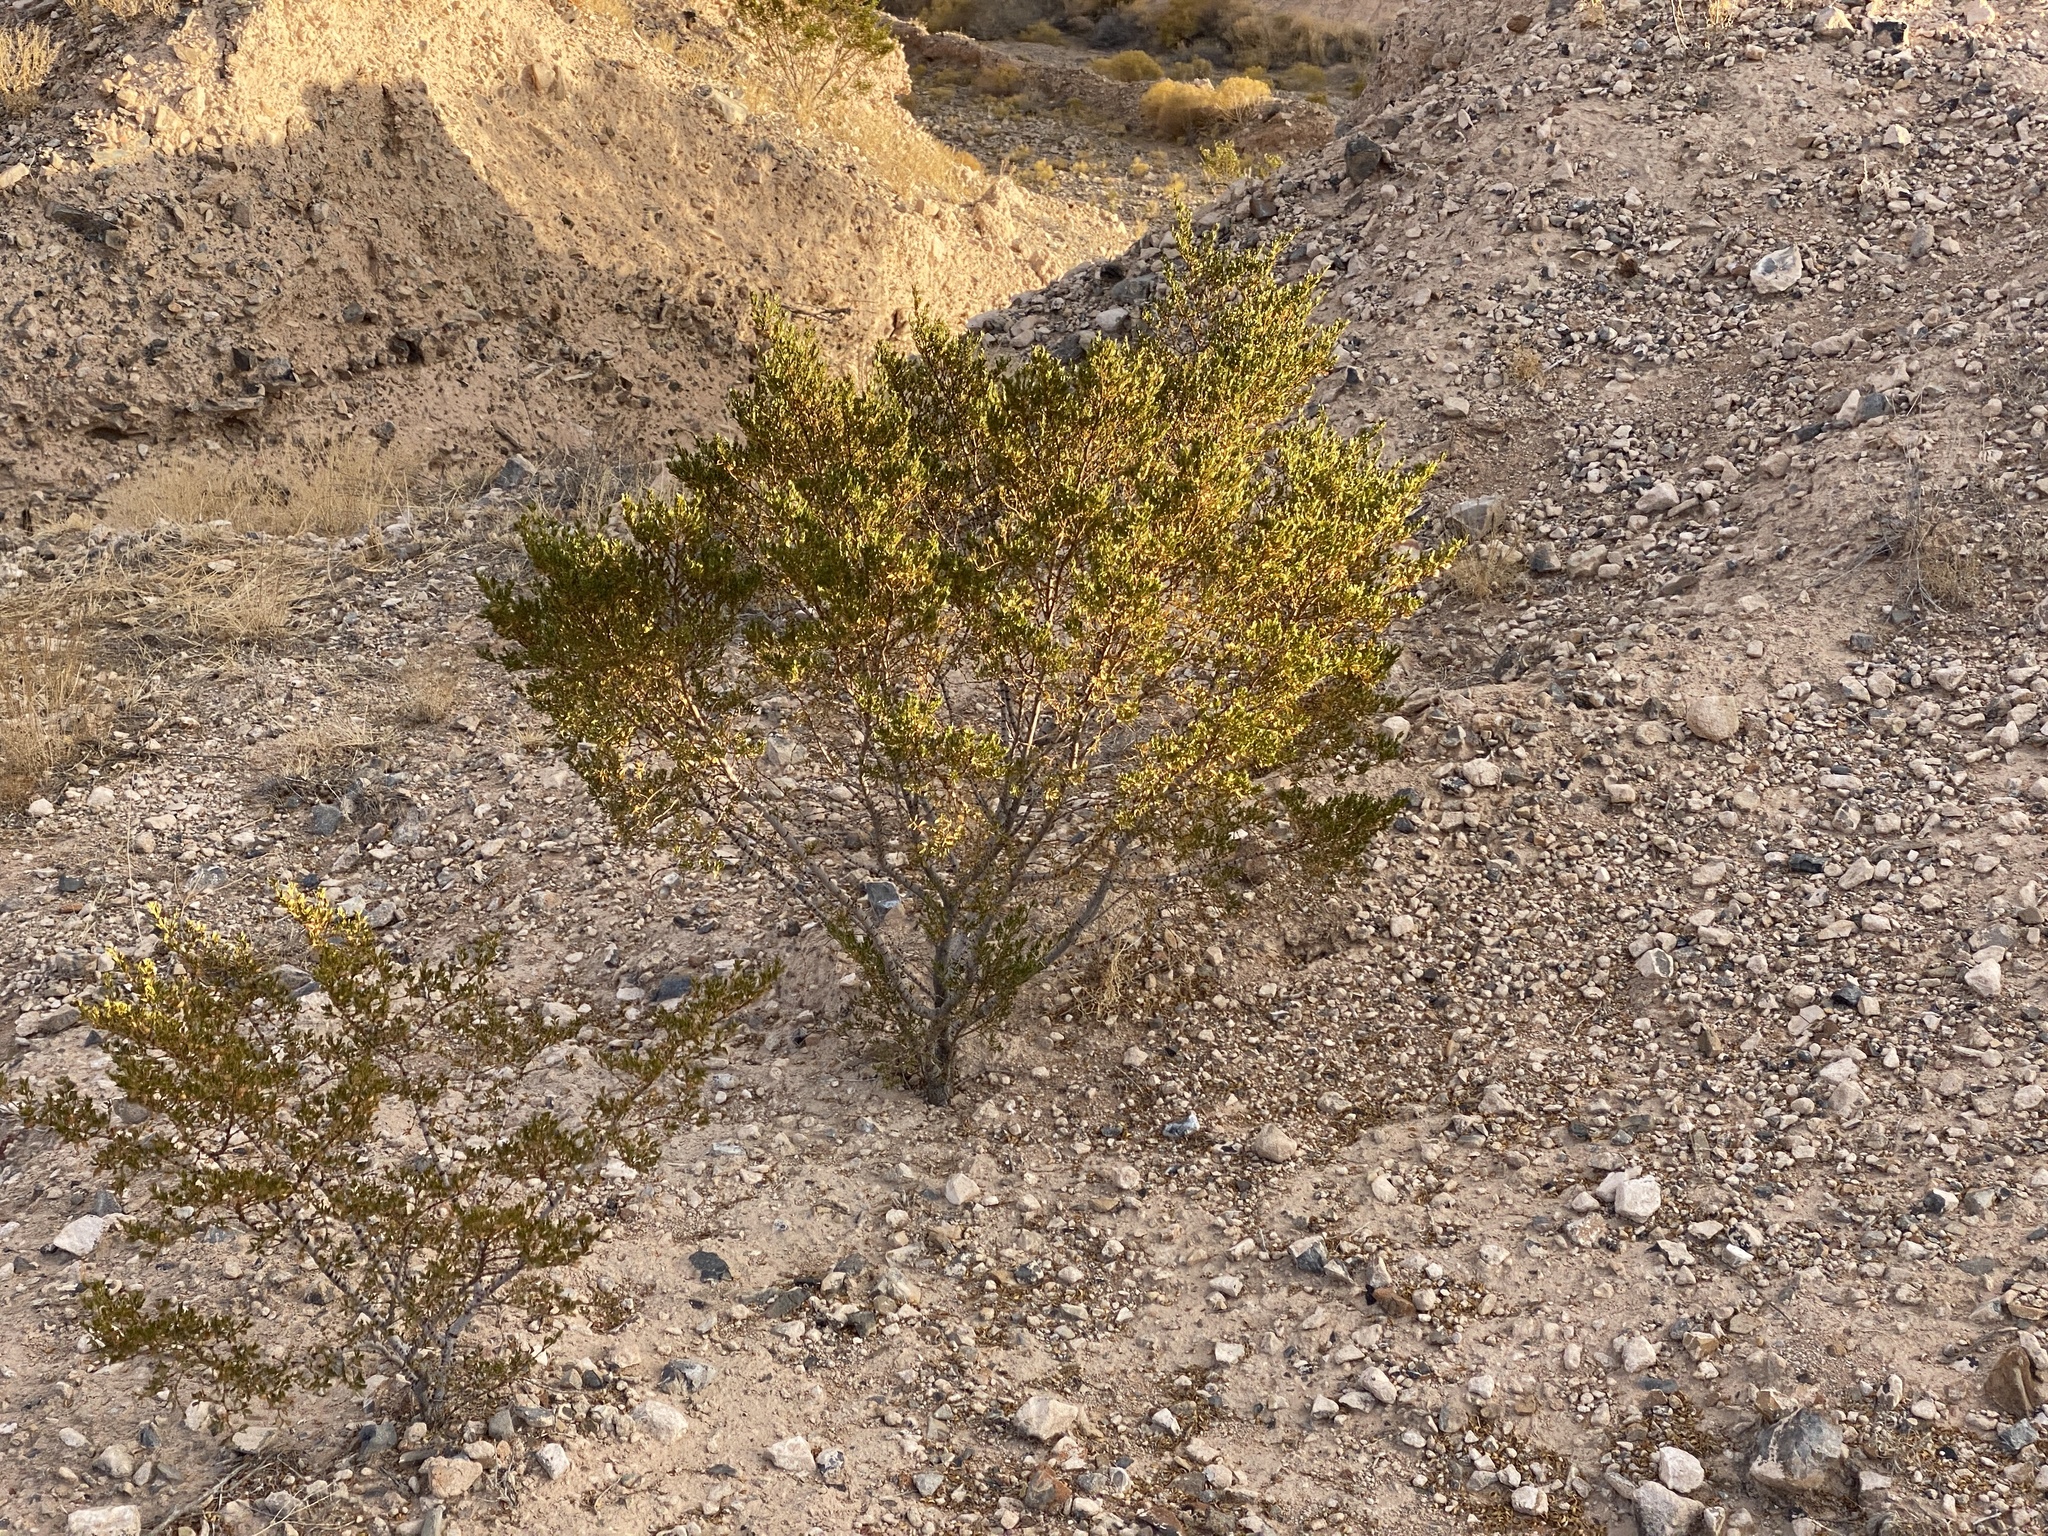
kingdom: Plantae
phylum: Tracheophyta
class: Magnoliopsida
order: Zygophyllales
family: Zygophyllaceae
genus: Larrea
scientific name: Larrea tridentata
